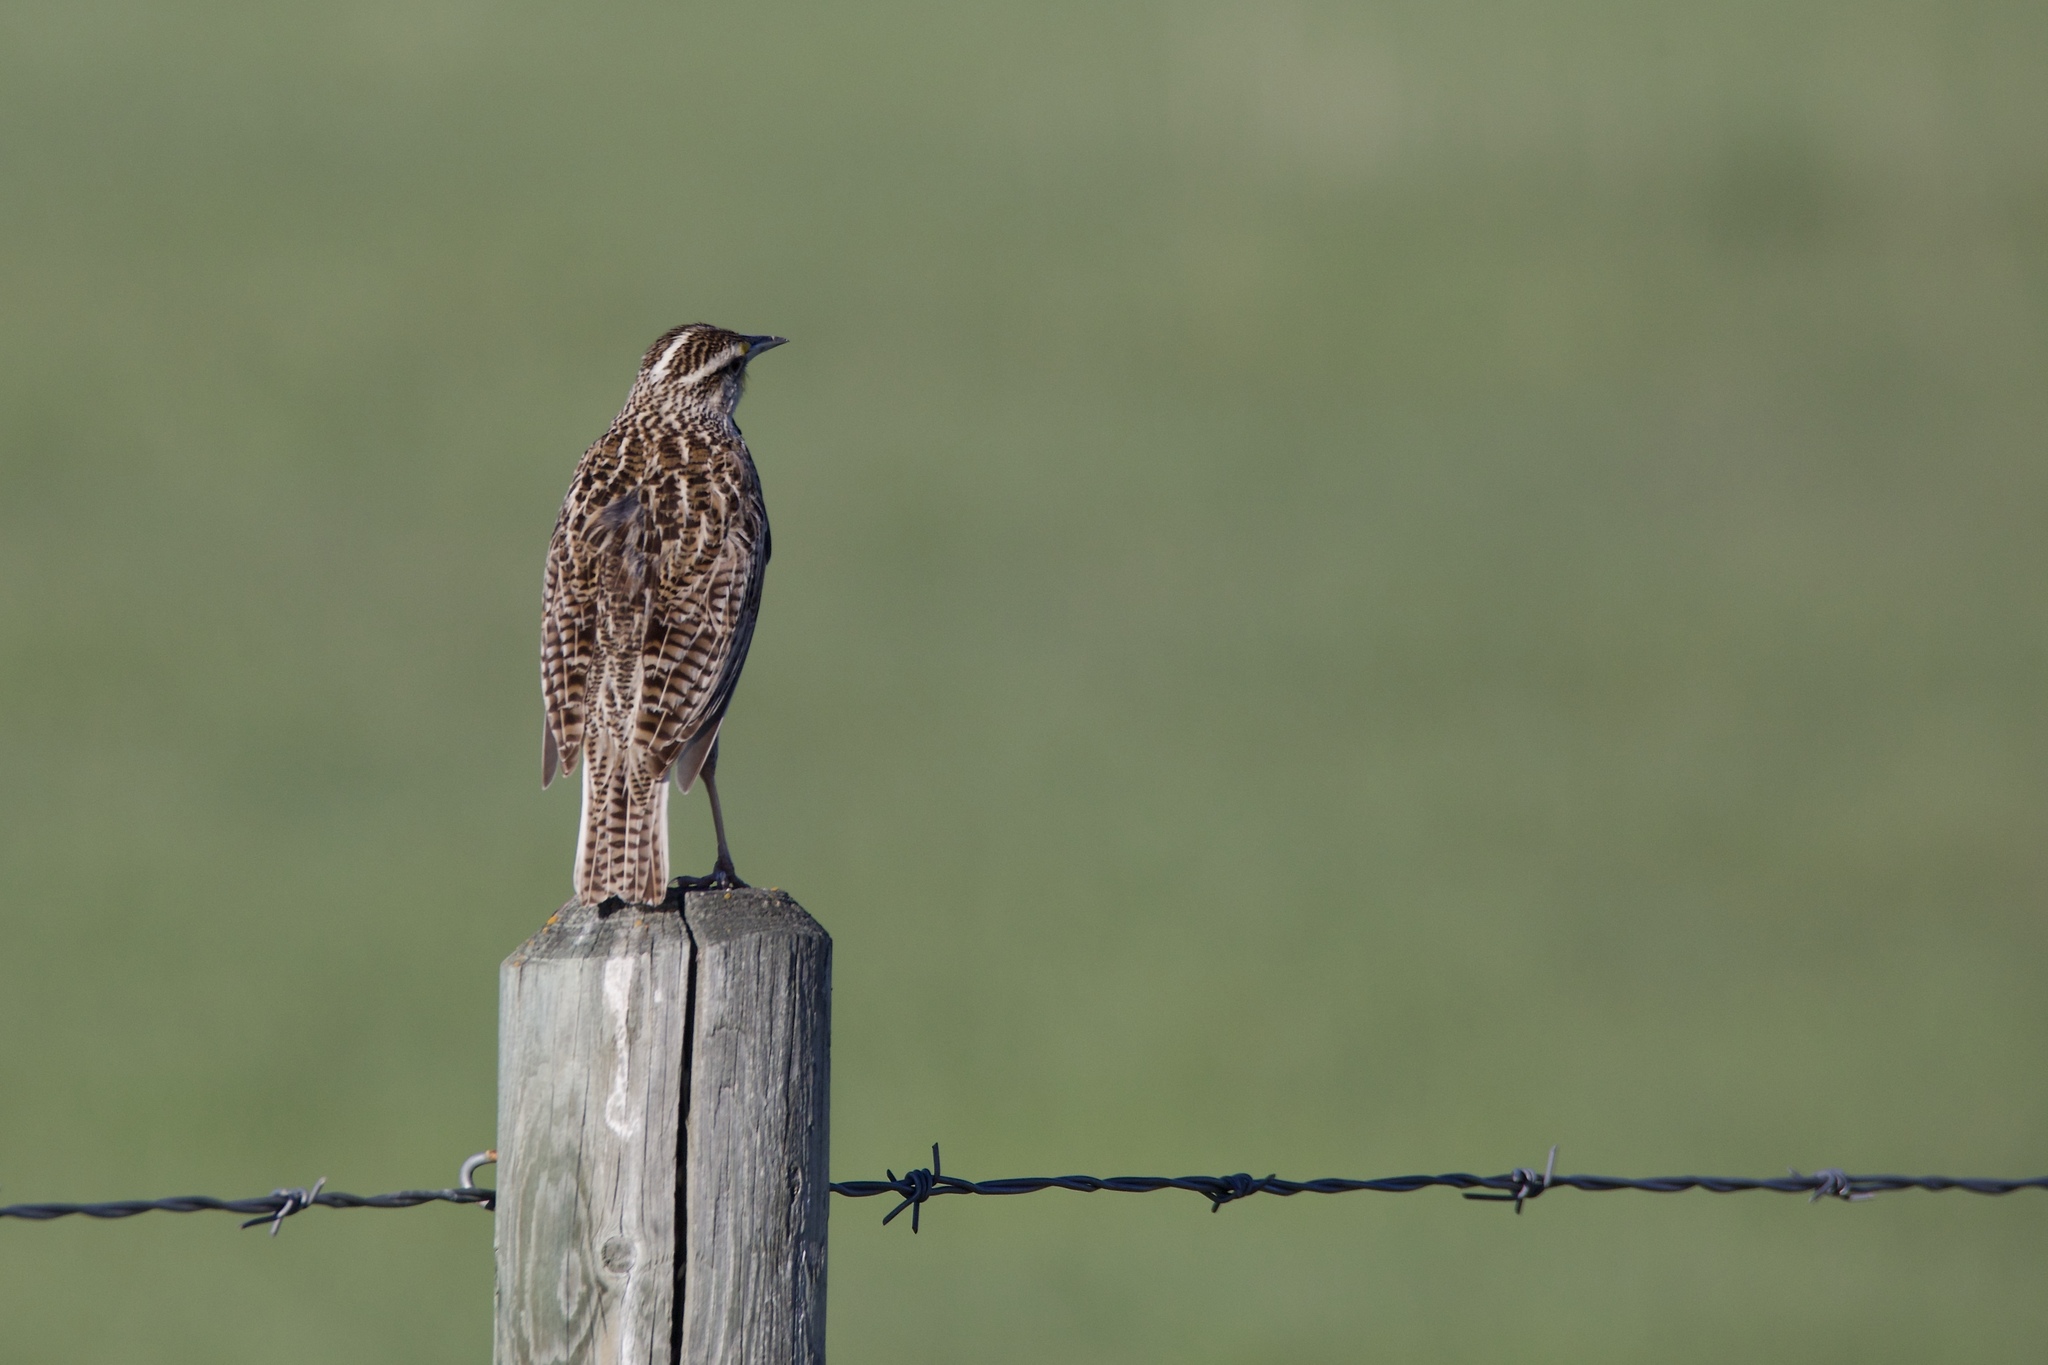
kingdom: Animalia
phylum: Chordata
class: Aves
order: Passeriformes
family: Icteridae
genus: Sturnella
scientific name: Sturnella neglecta
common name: Western meadowlark
